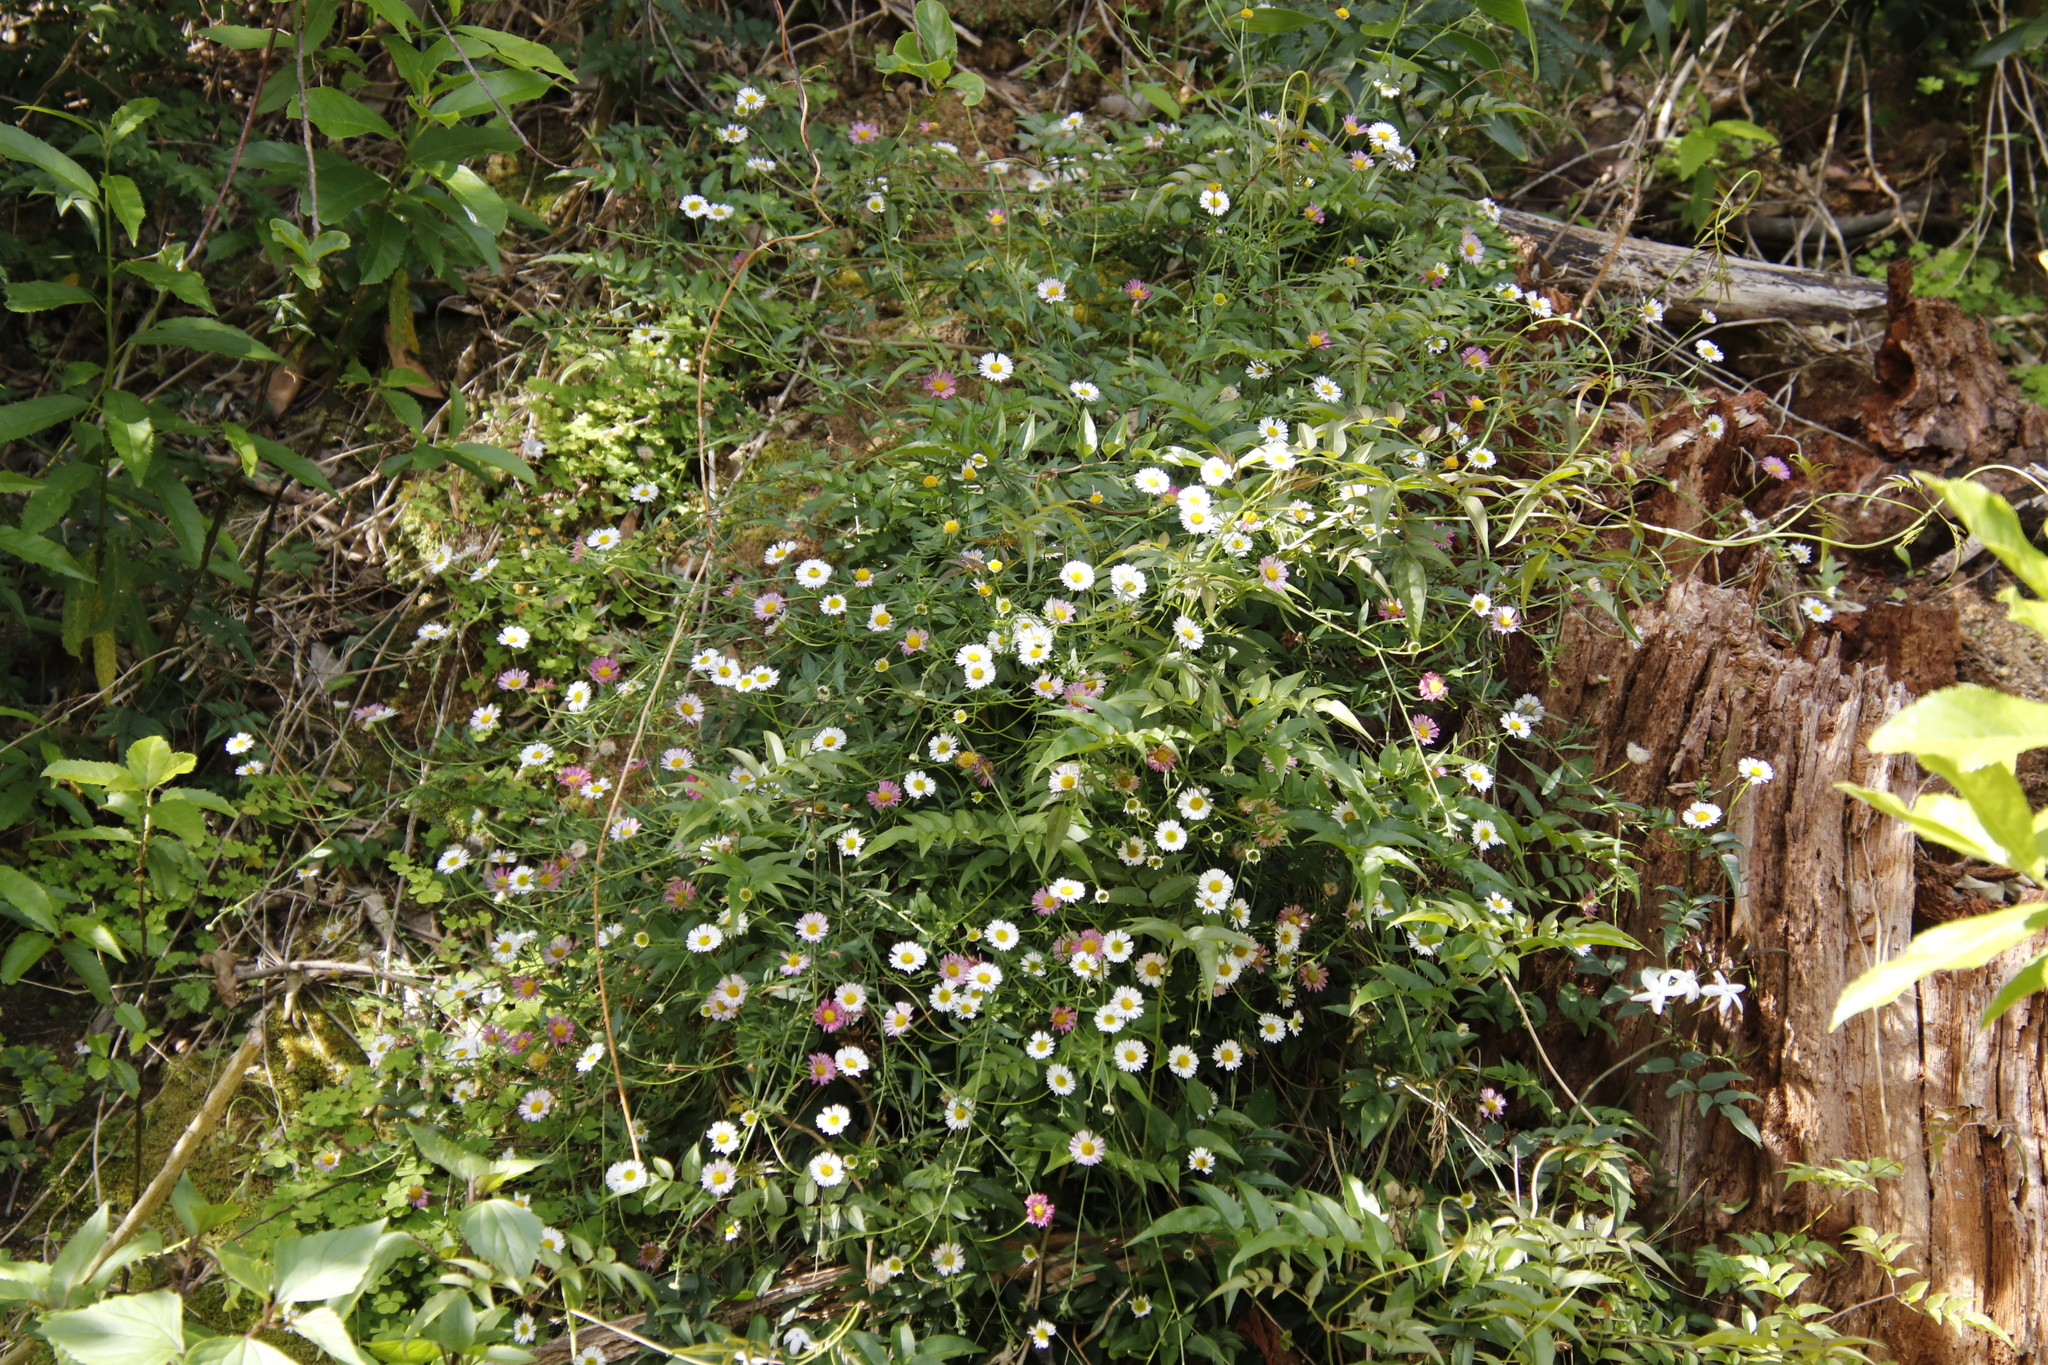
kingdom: Plantae
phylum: Tracheophyta
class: Magnoliopsida
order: Asterales
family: Asteraceae
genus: Erigeron
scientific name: Erigeron karvinskianus
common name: Mexican fleabane
